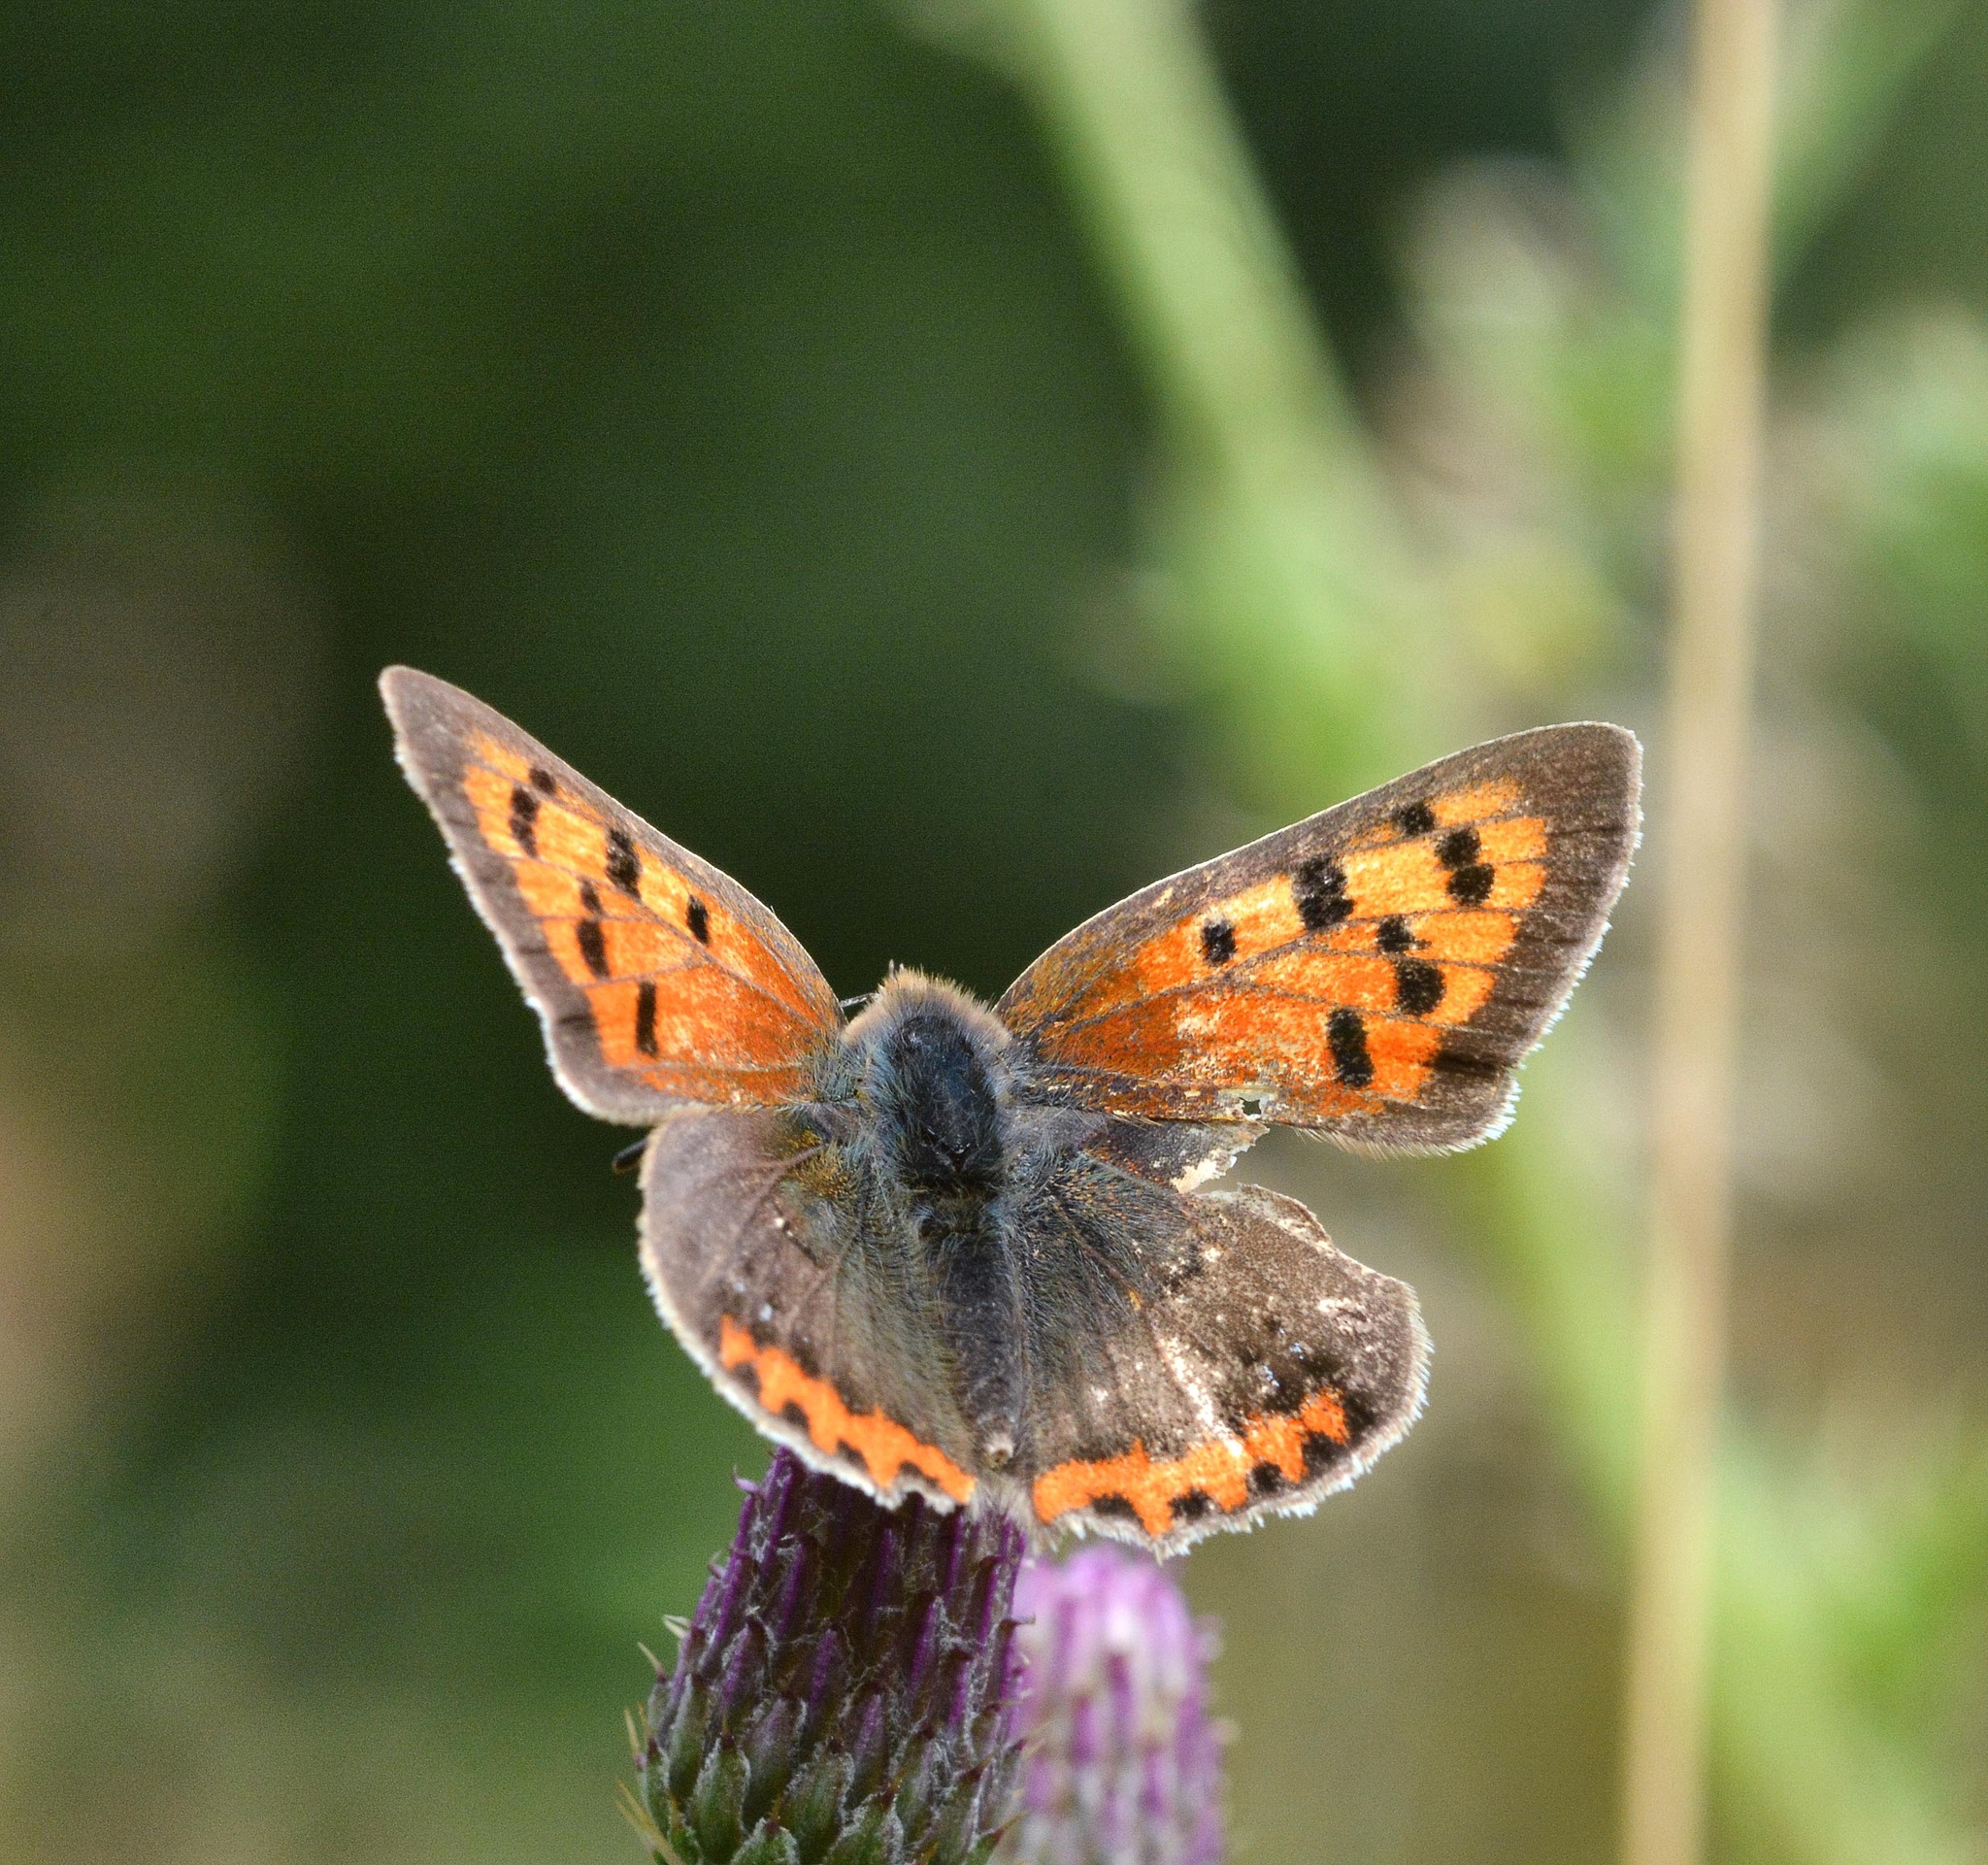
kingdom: Animalia
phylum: Arthropoda
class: Insecta
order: Lepidoptera
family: Lycaenidae
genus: Lycaena
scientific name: Lycaena phlaeas
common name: Small copper
